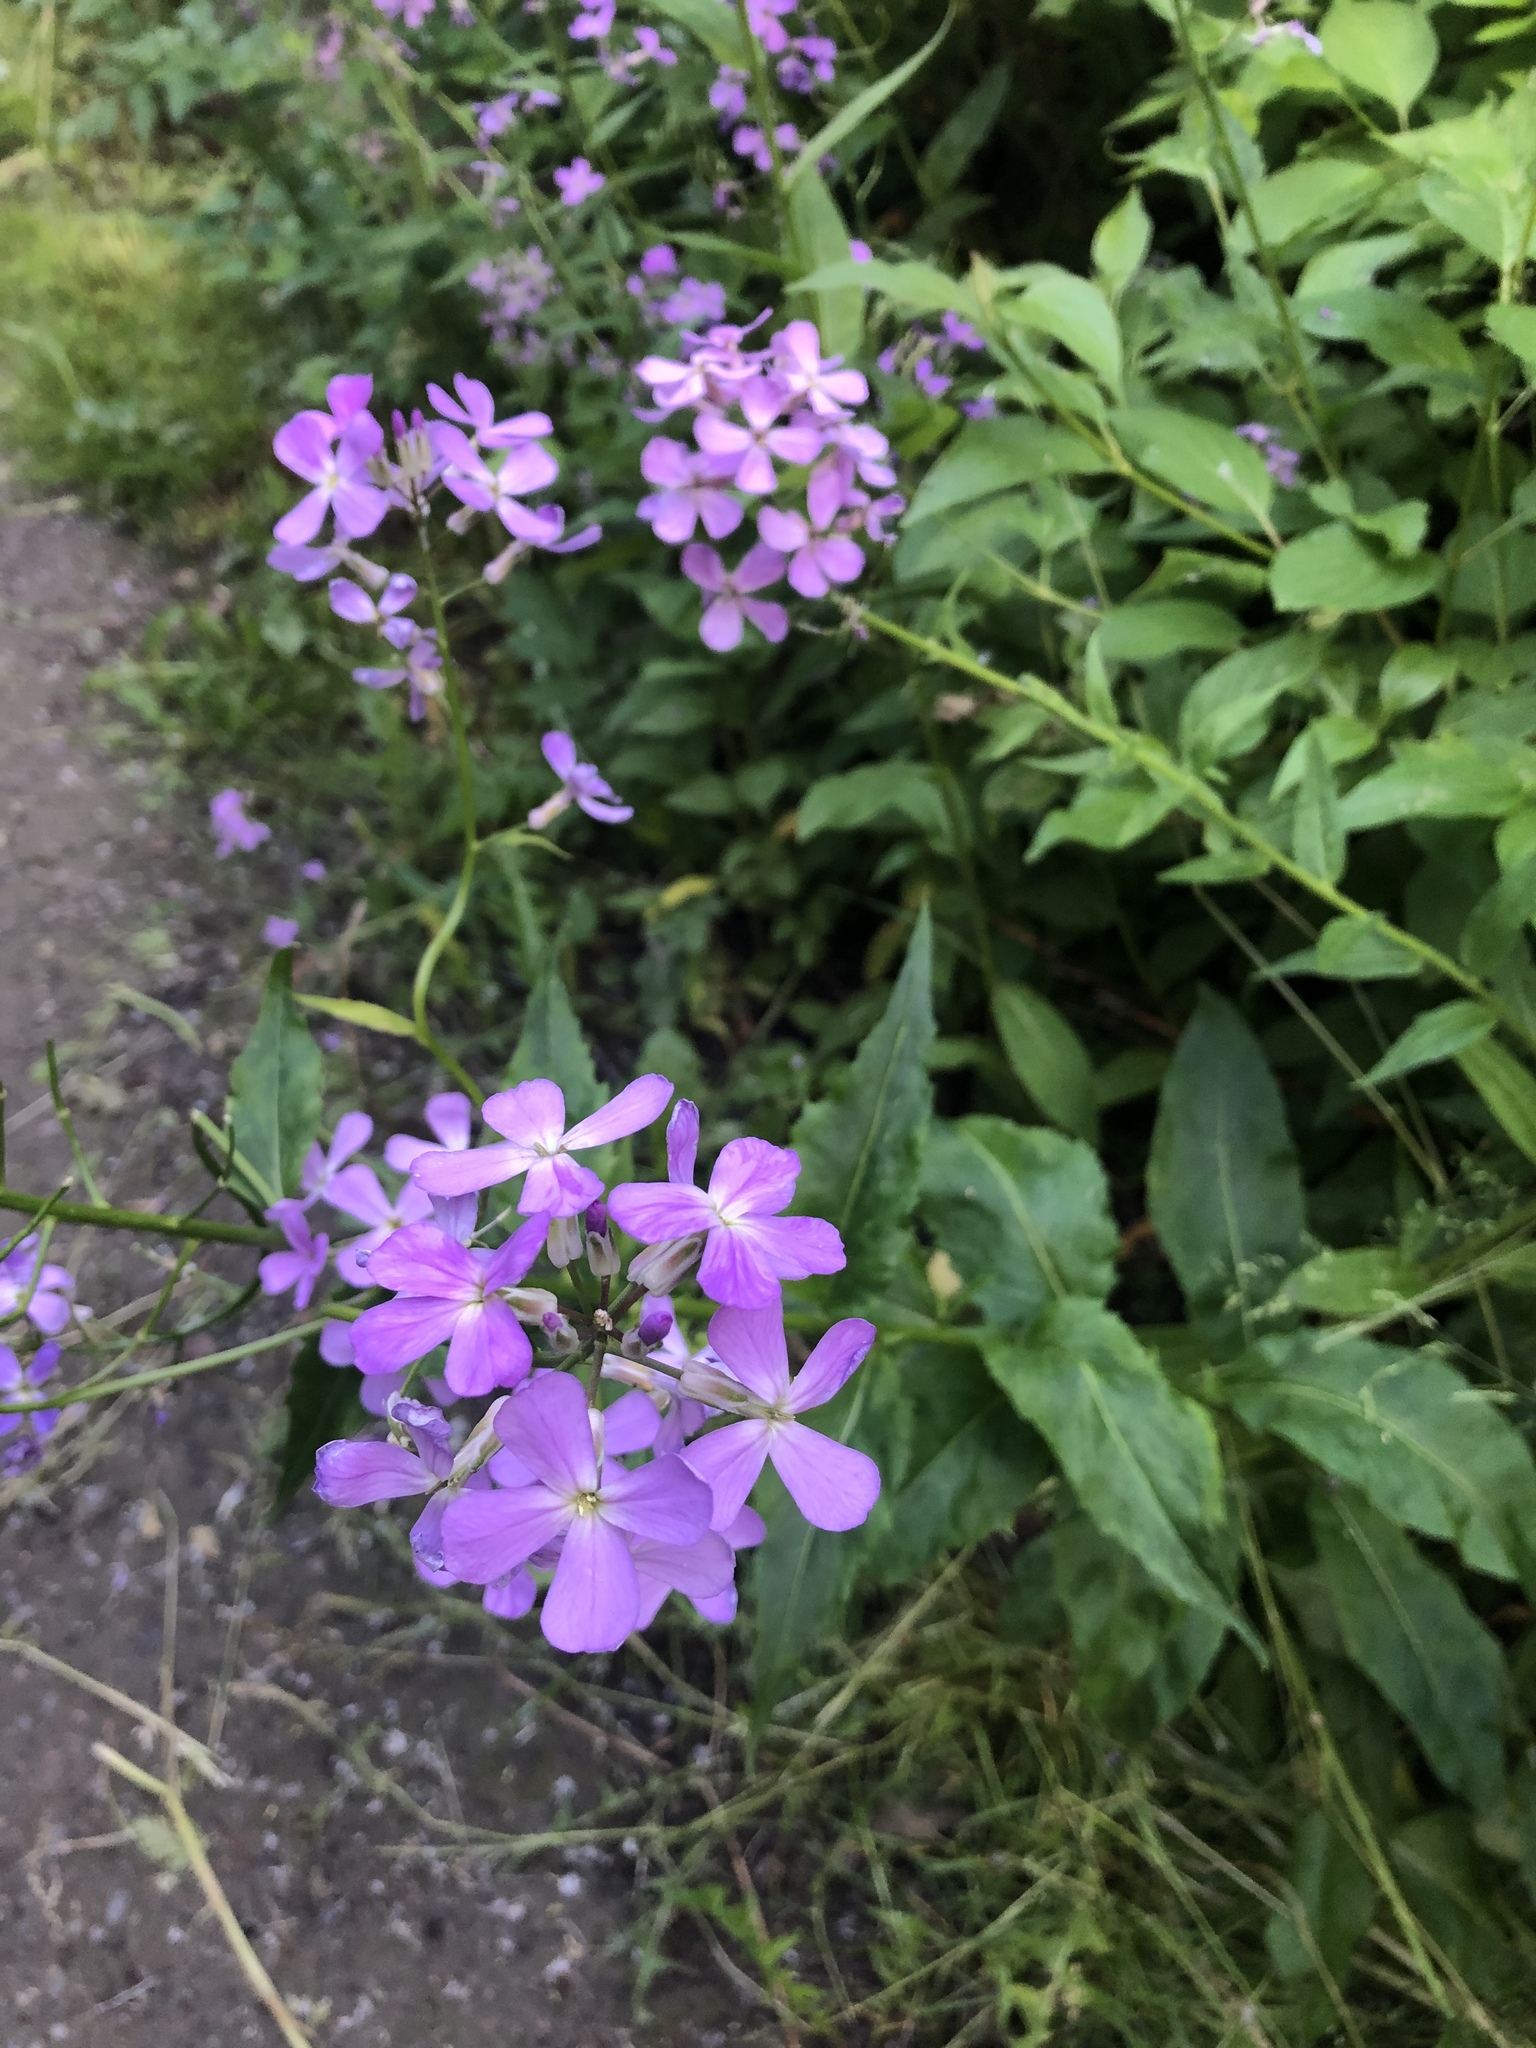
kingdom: Plantae
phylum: Tracheophyta
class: Magnoliopsida
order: Brassicales
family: Brassicaceae
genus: Hesperis
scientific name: Hesperis matronalis
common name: Dame's-violet
